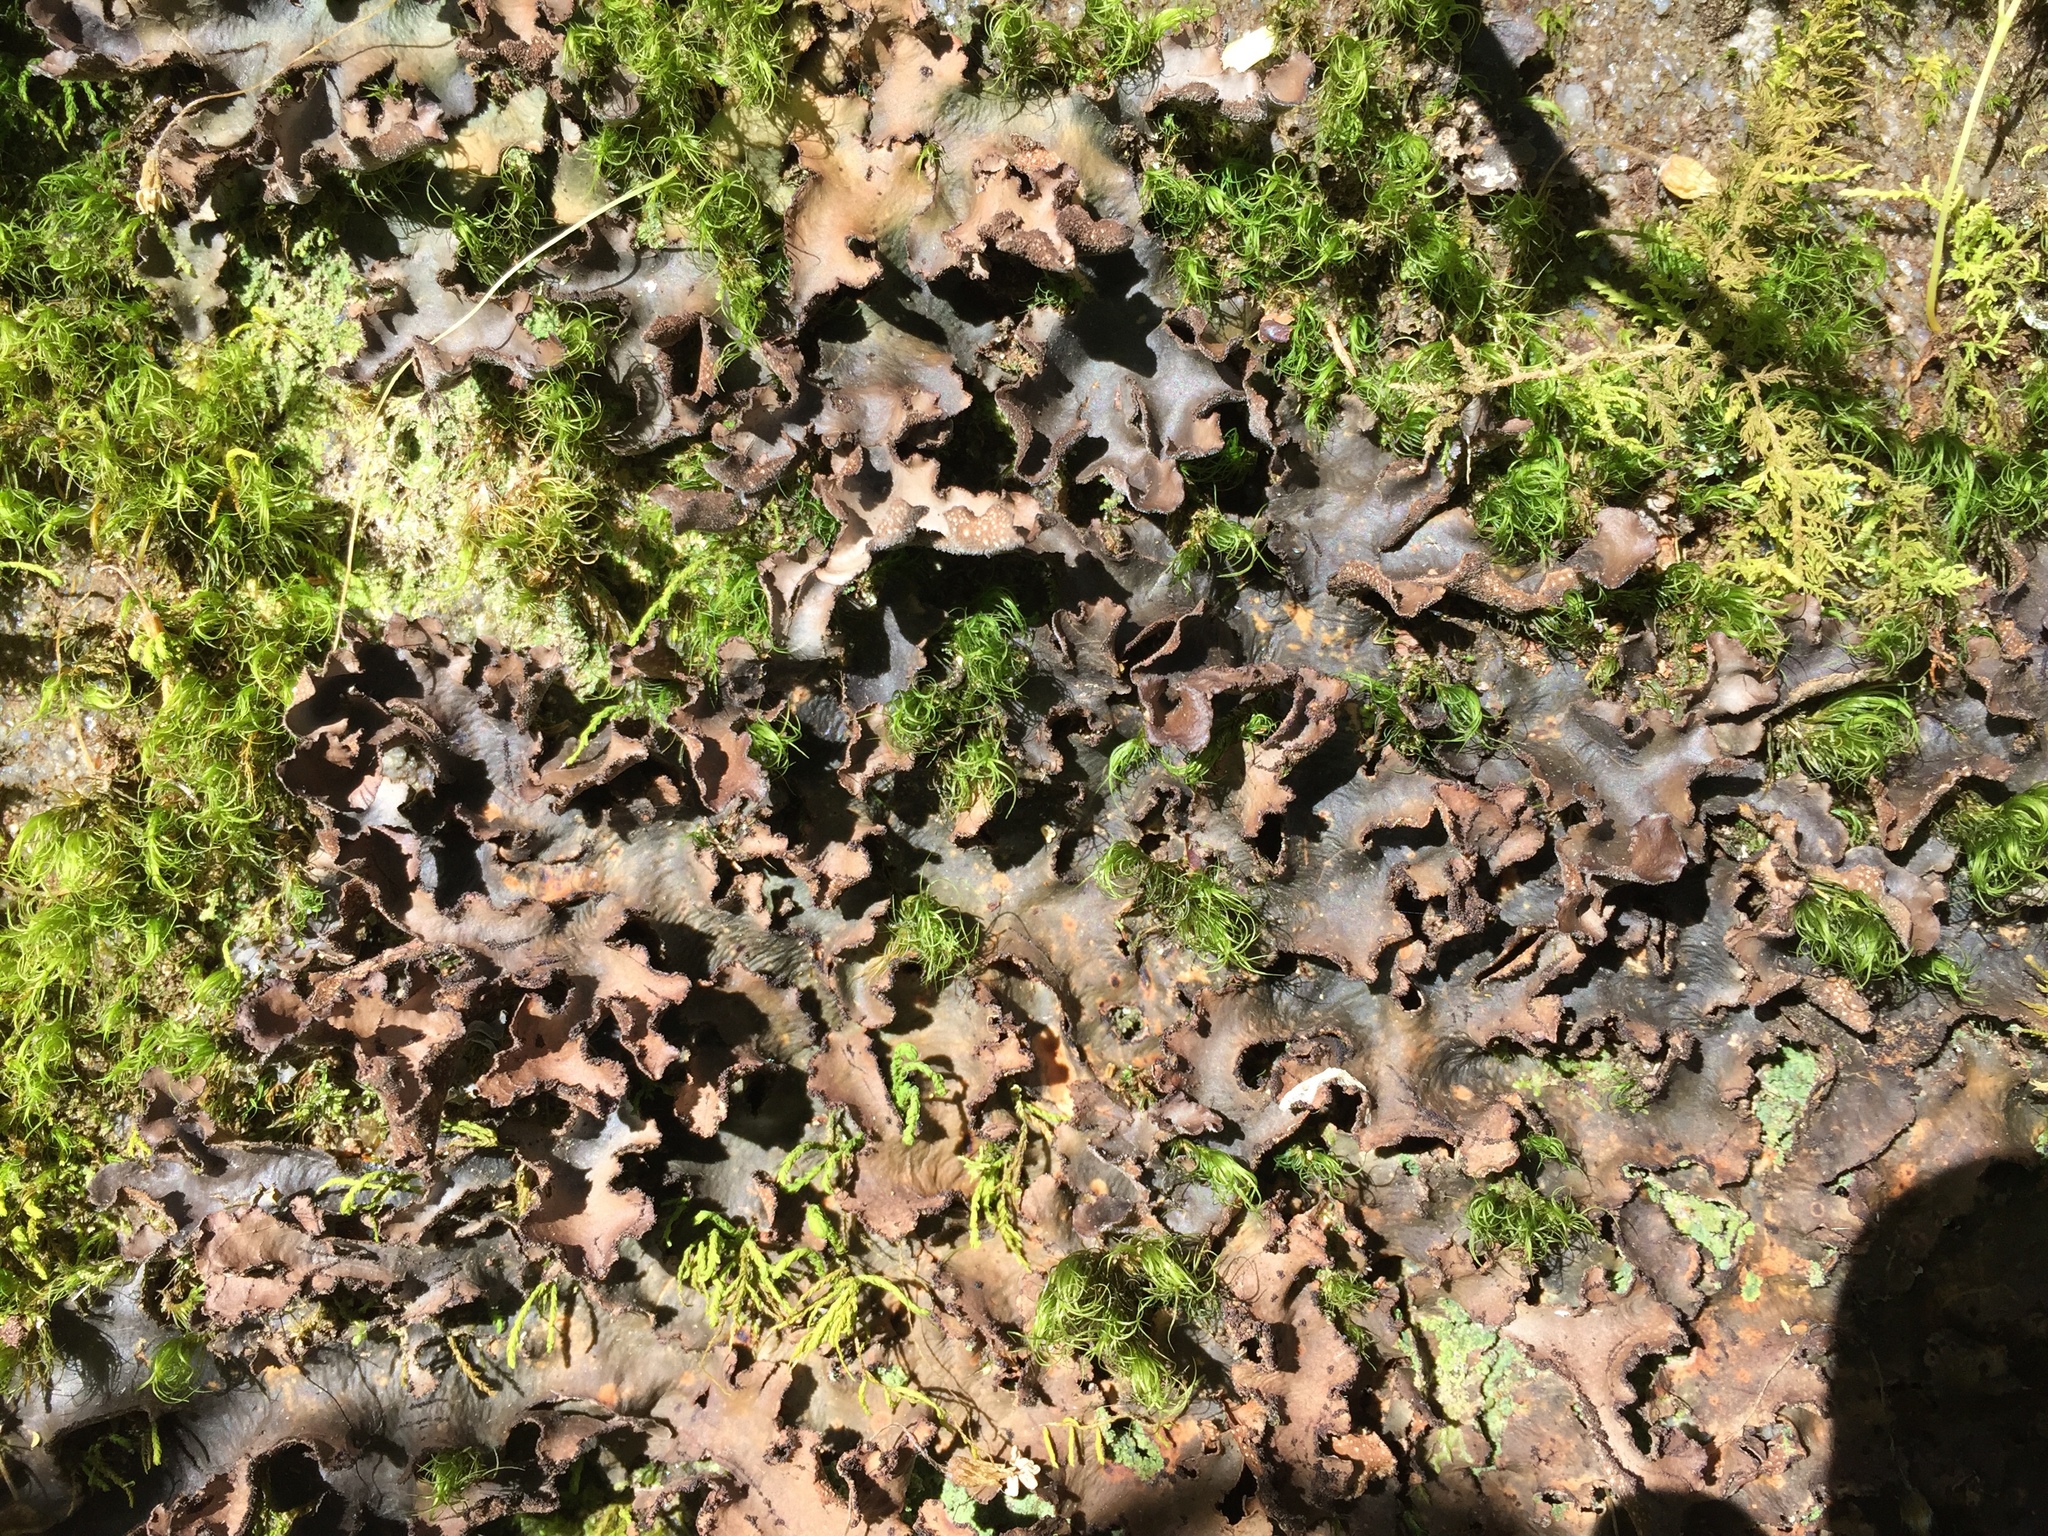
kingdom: Fungi
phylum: Ascomycota
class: Lecanoromycetes
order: Peltigerales
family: Lobariaceae
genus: Sticta
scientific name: Sticta beauvoisii
